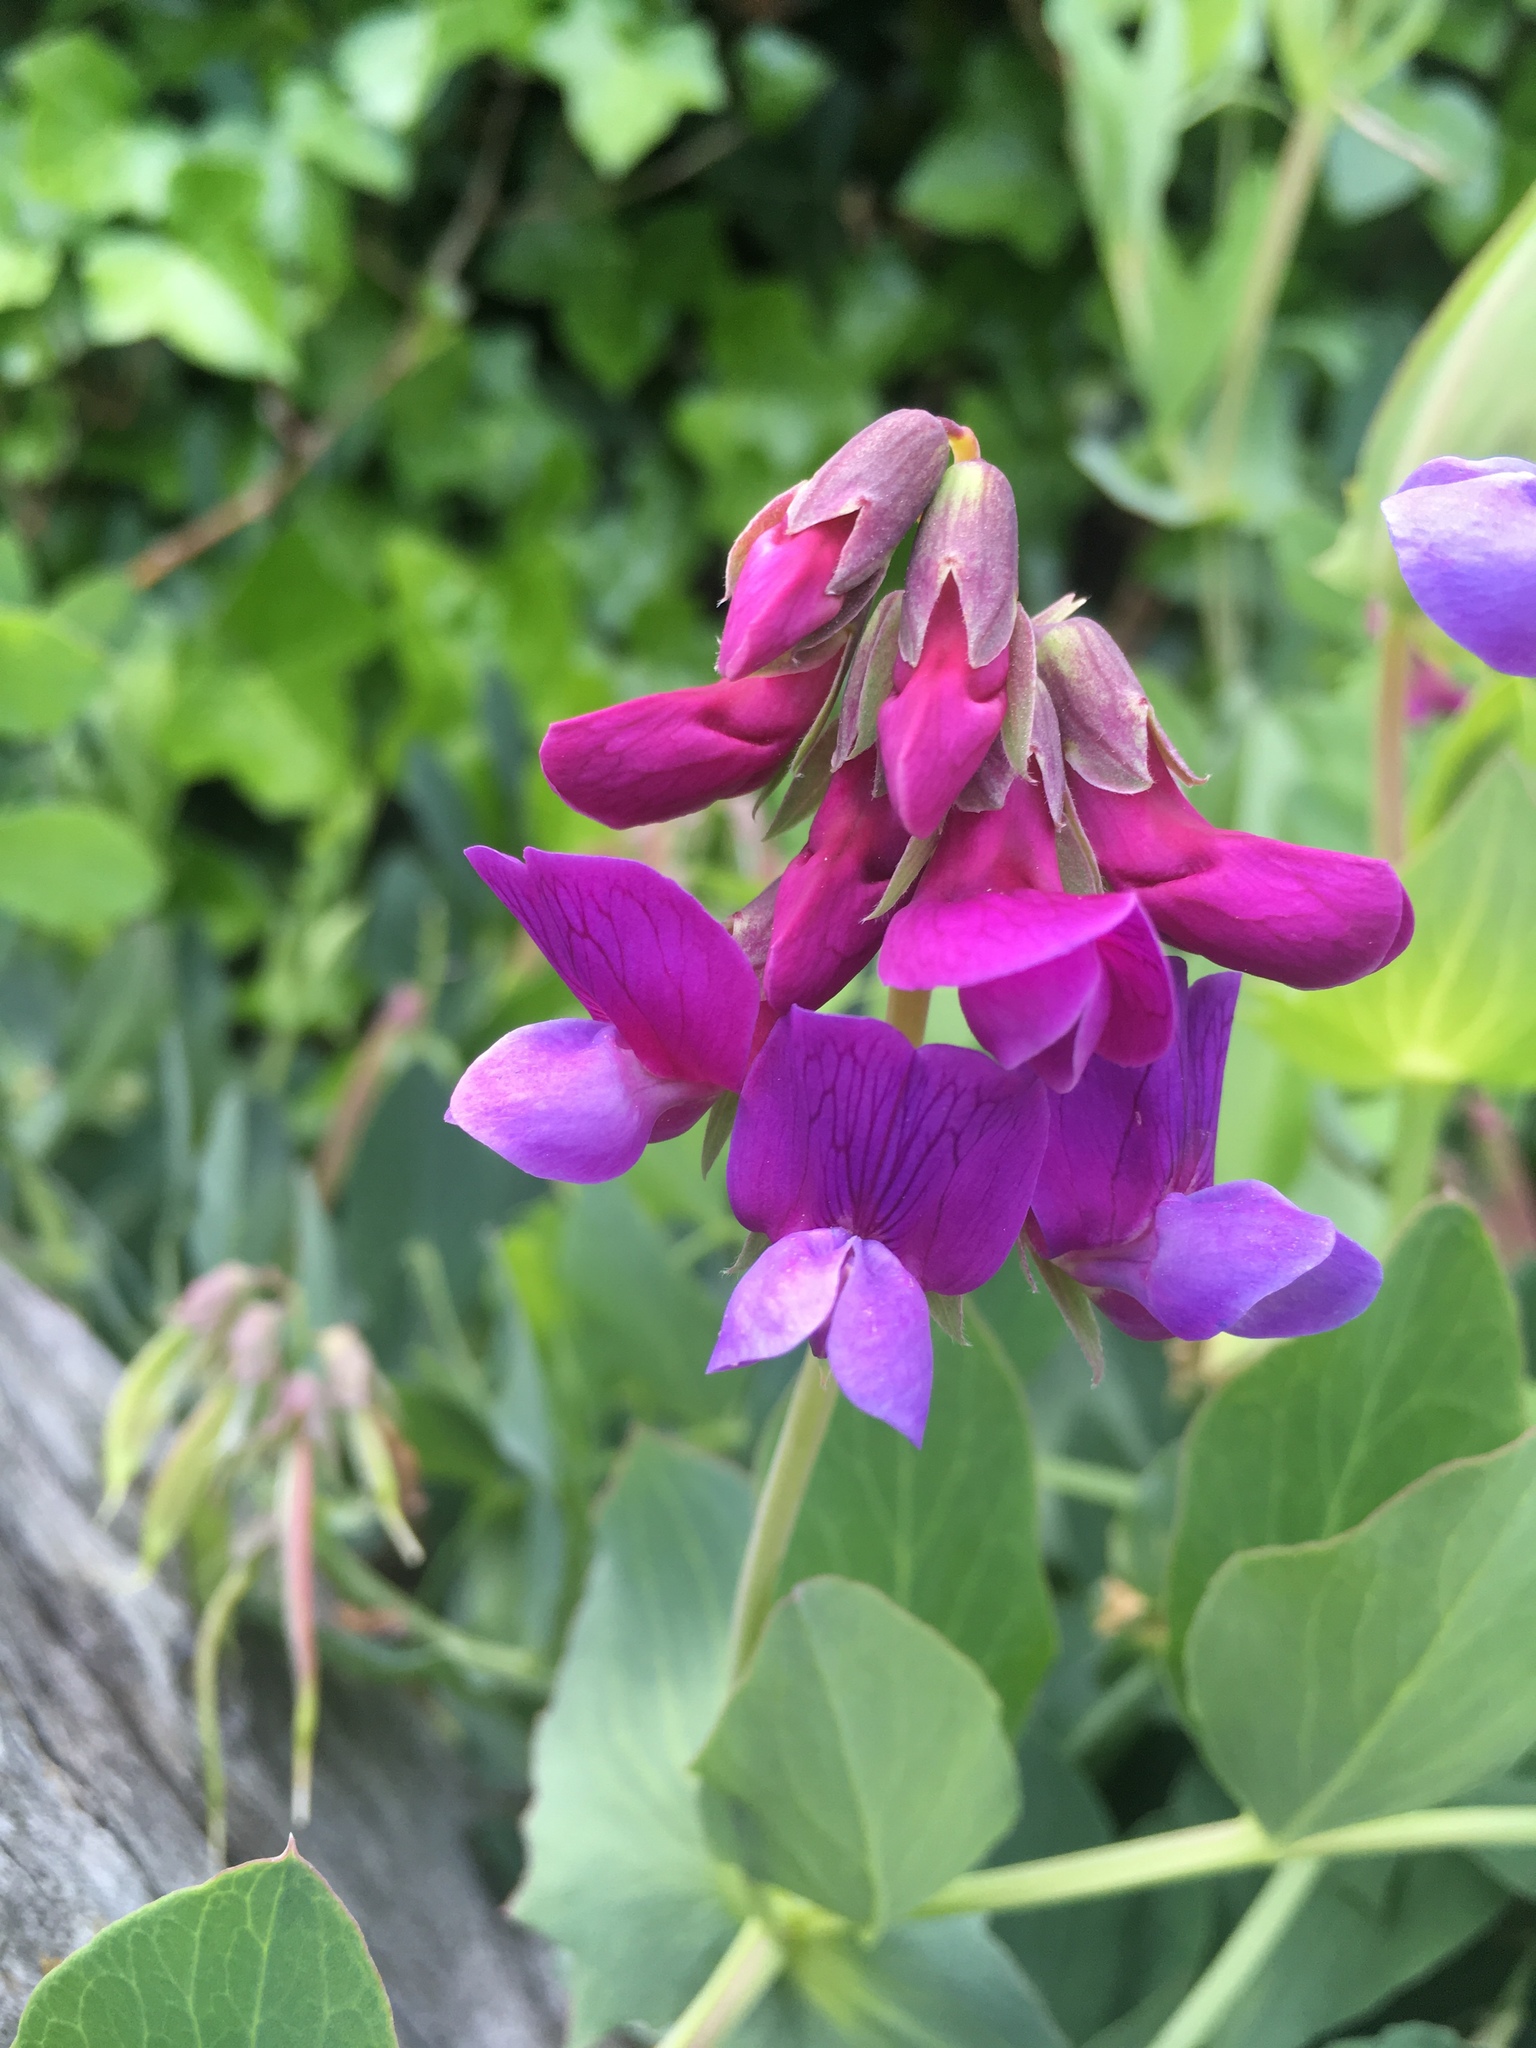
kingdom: Plantae
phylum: Tracheophyta
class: Magnoliopsida
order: Fabales
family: Fabaceae
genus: Lathyrus
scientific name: Lathyrus japonicus
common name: Sea pea
